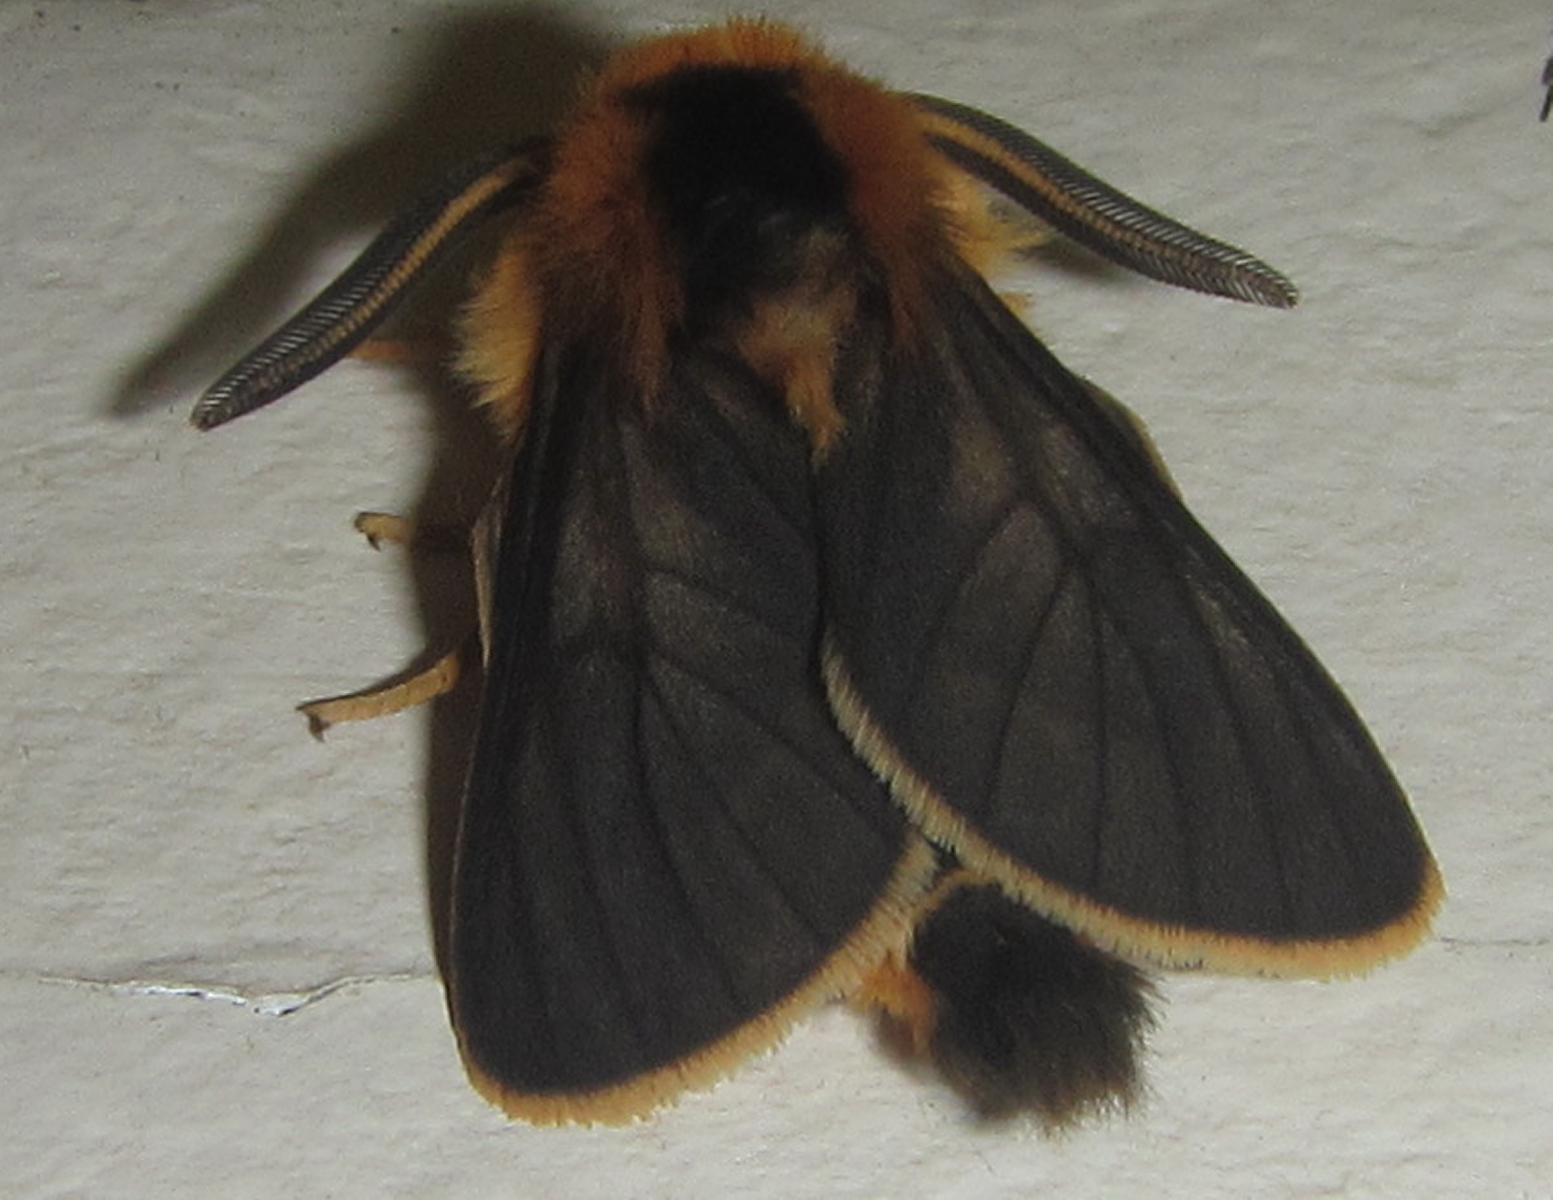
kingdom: Animalia
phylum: Arthropoda
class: Insecta
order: Lepidoptera
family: Erebidae
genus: Automolis
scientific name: Automolis bicolora
